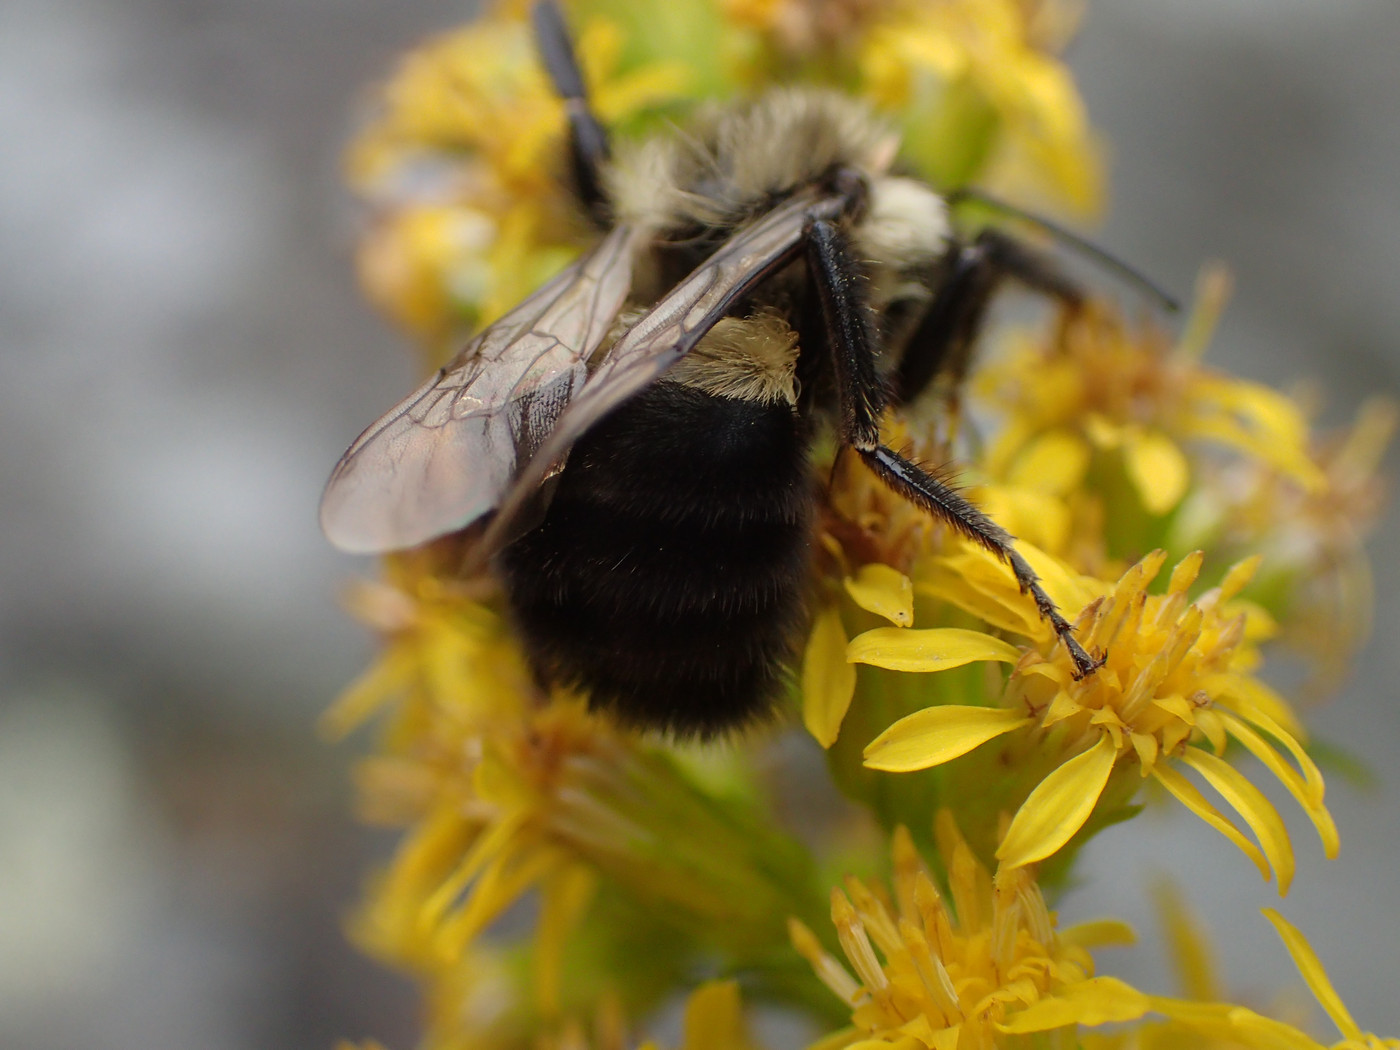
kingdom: Animalia
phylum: Arthropoda
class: Insecta
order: Hymenoptera
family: Apidae
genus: Bombus
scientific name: Bombus impatiens
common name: Common eastern bumble bee
